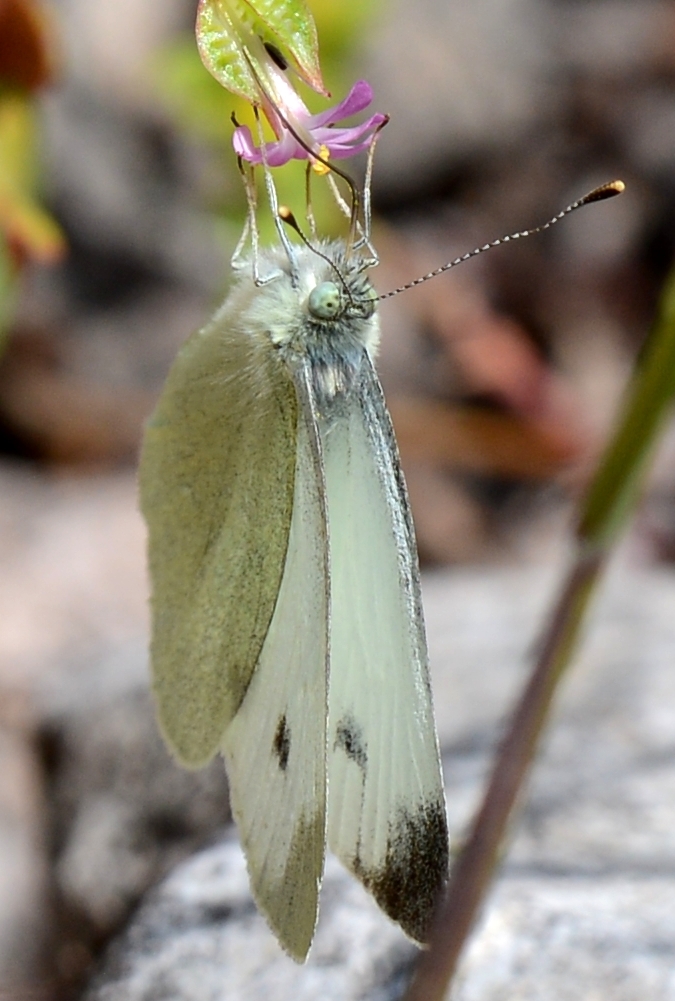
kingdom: Animalia
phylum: Arthropoda
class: Insecta
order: Lepidoptera
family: Pieridae
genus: Pieris
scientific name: Pieris mannii
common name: Southern small white
